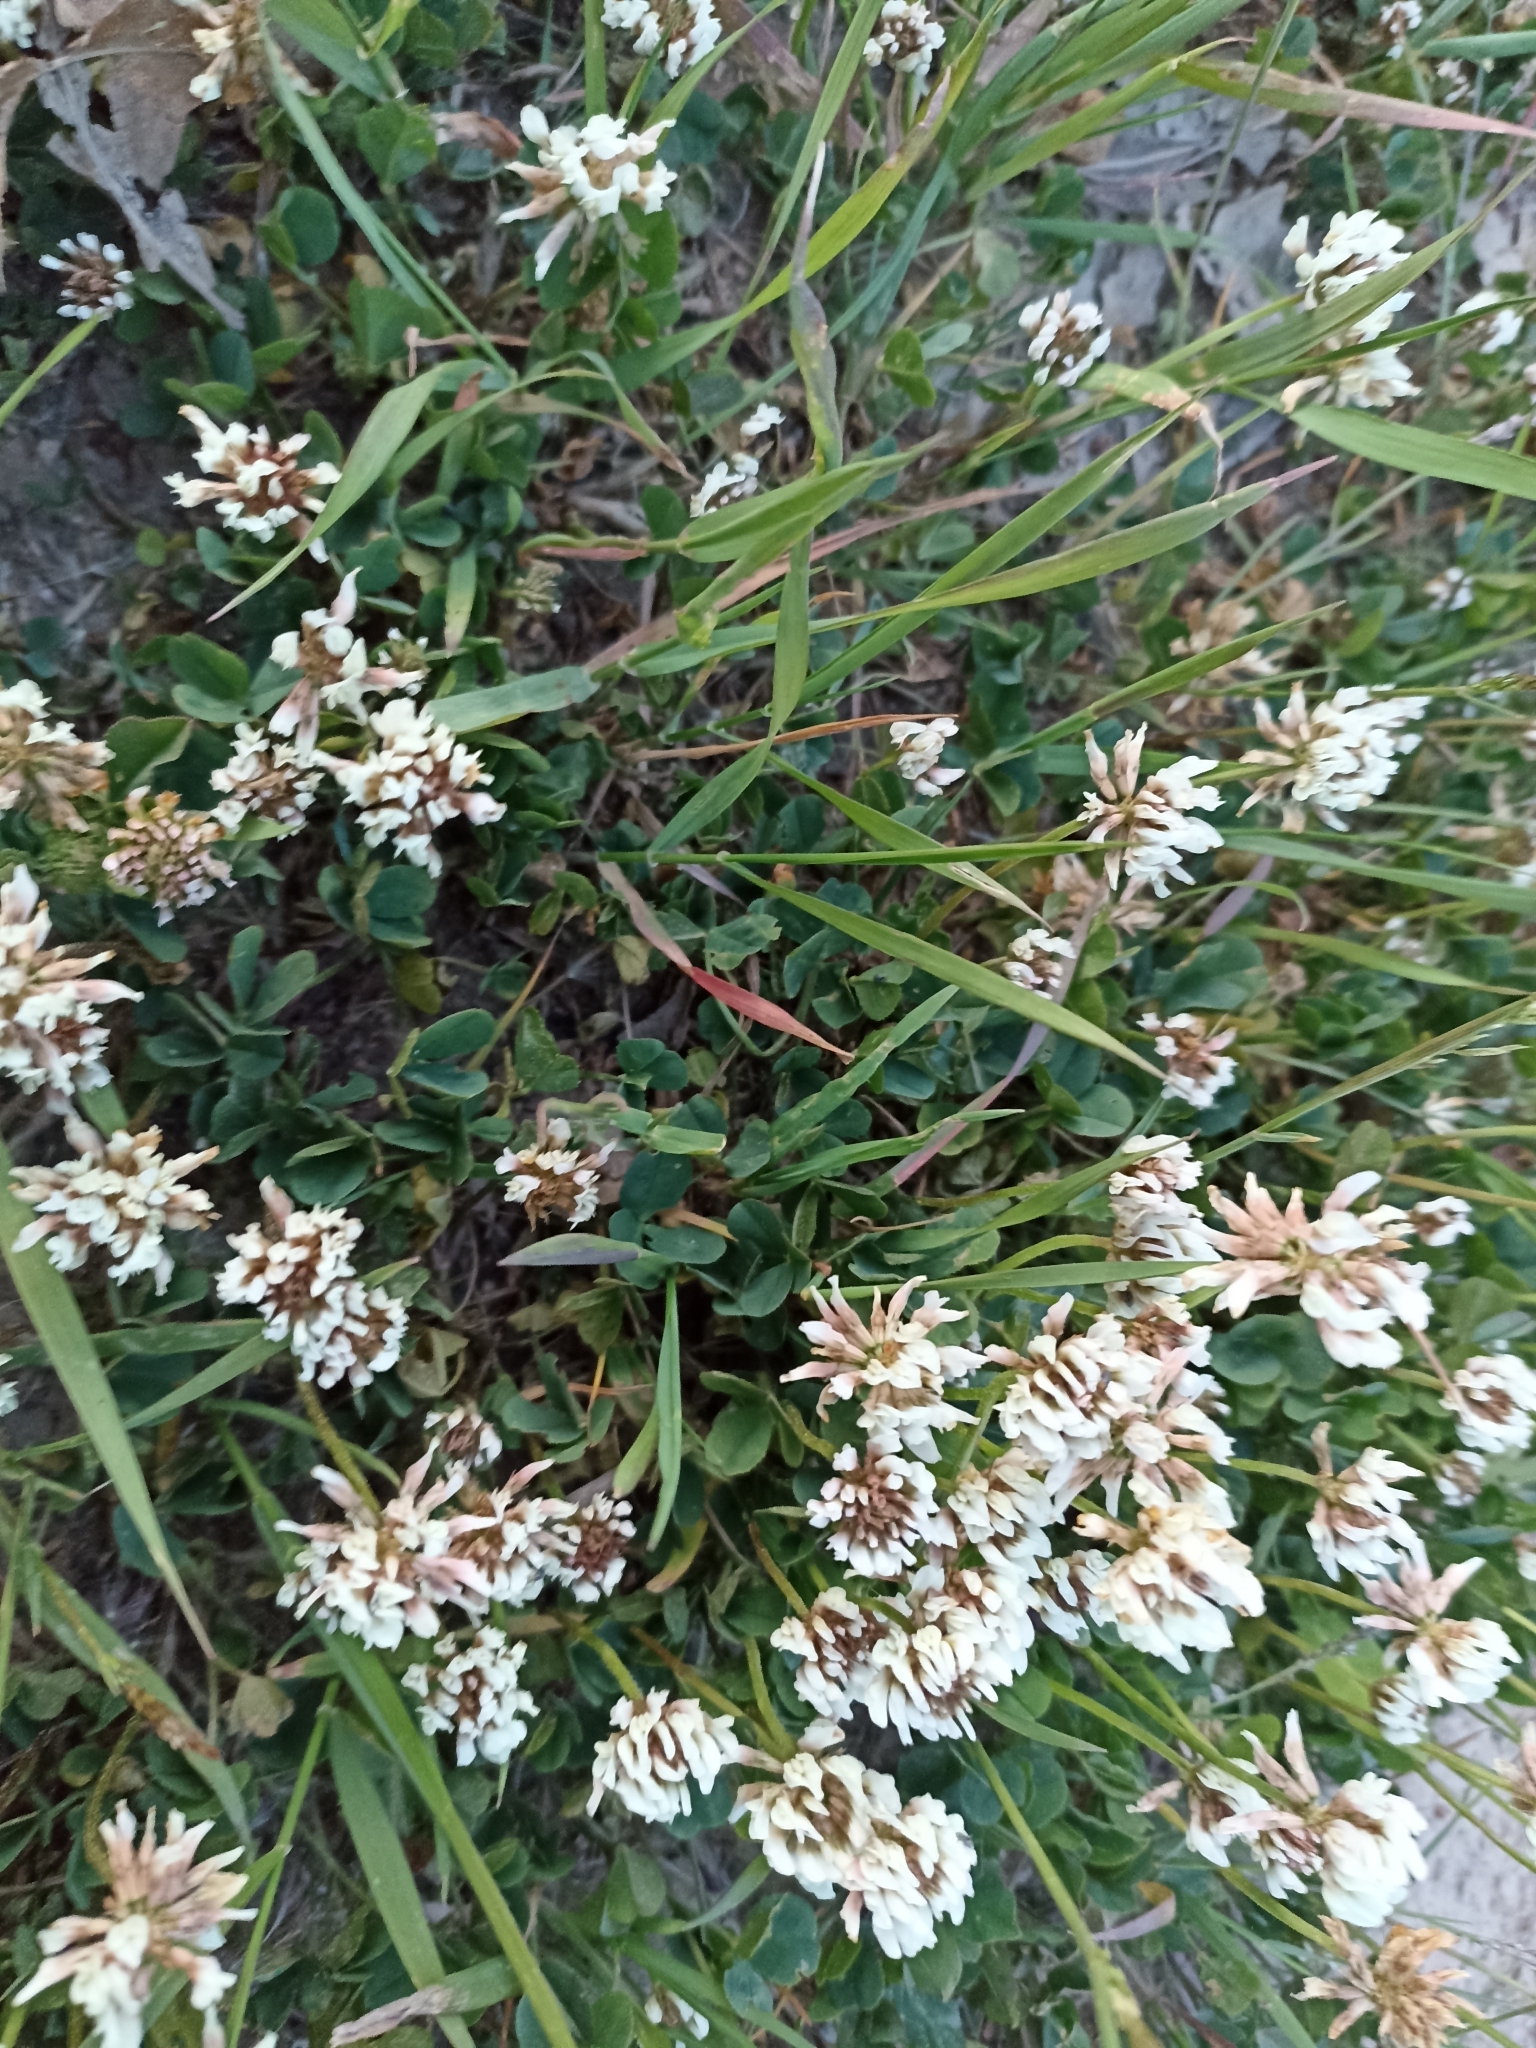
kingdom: Plantae
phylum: Tracheophyta
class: Magnoliopsida
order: Fabales
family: Fabaceae
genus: Trifolium
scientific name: Trifolium repens
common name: White clover
